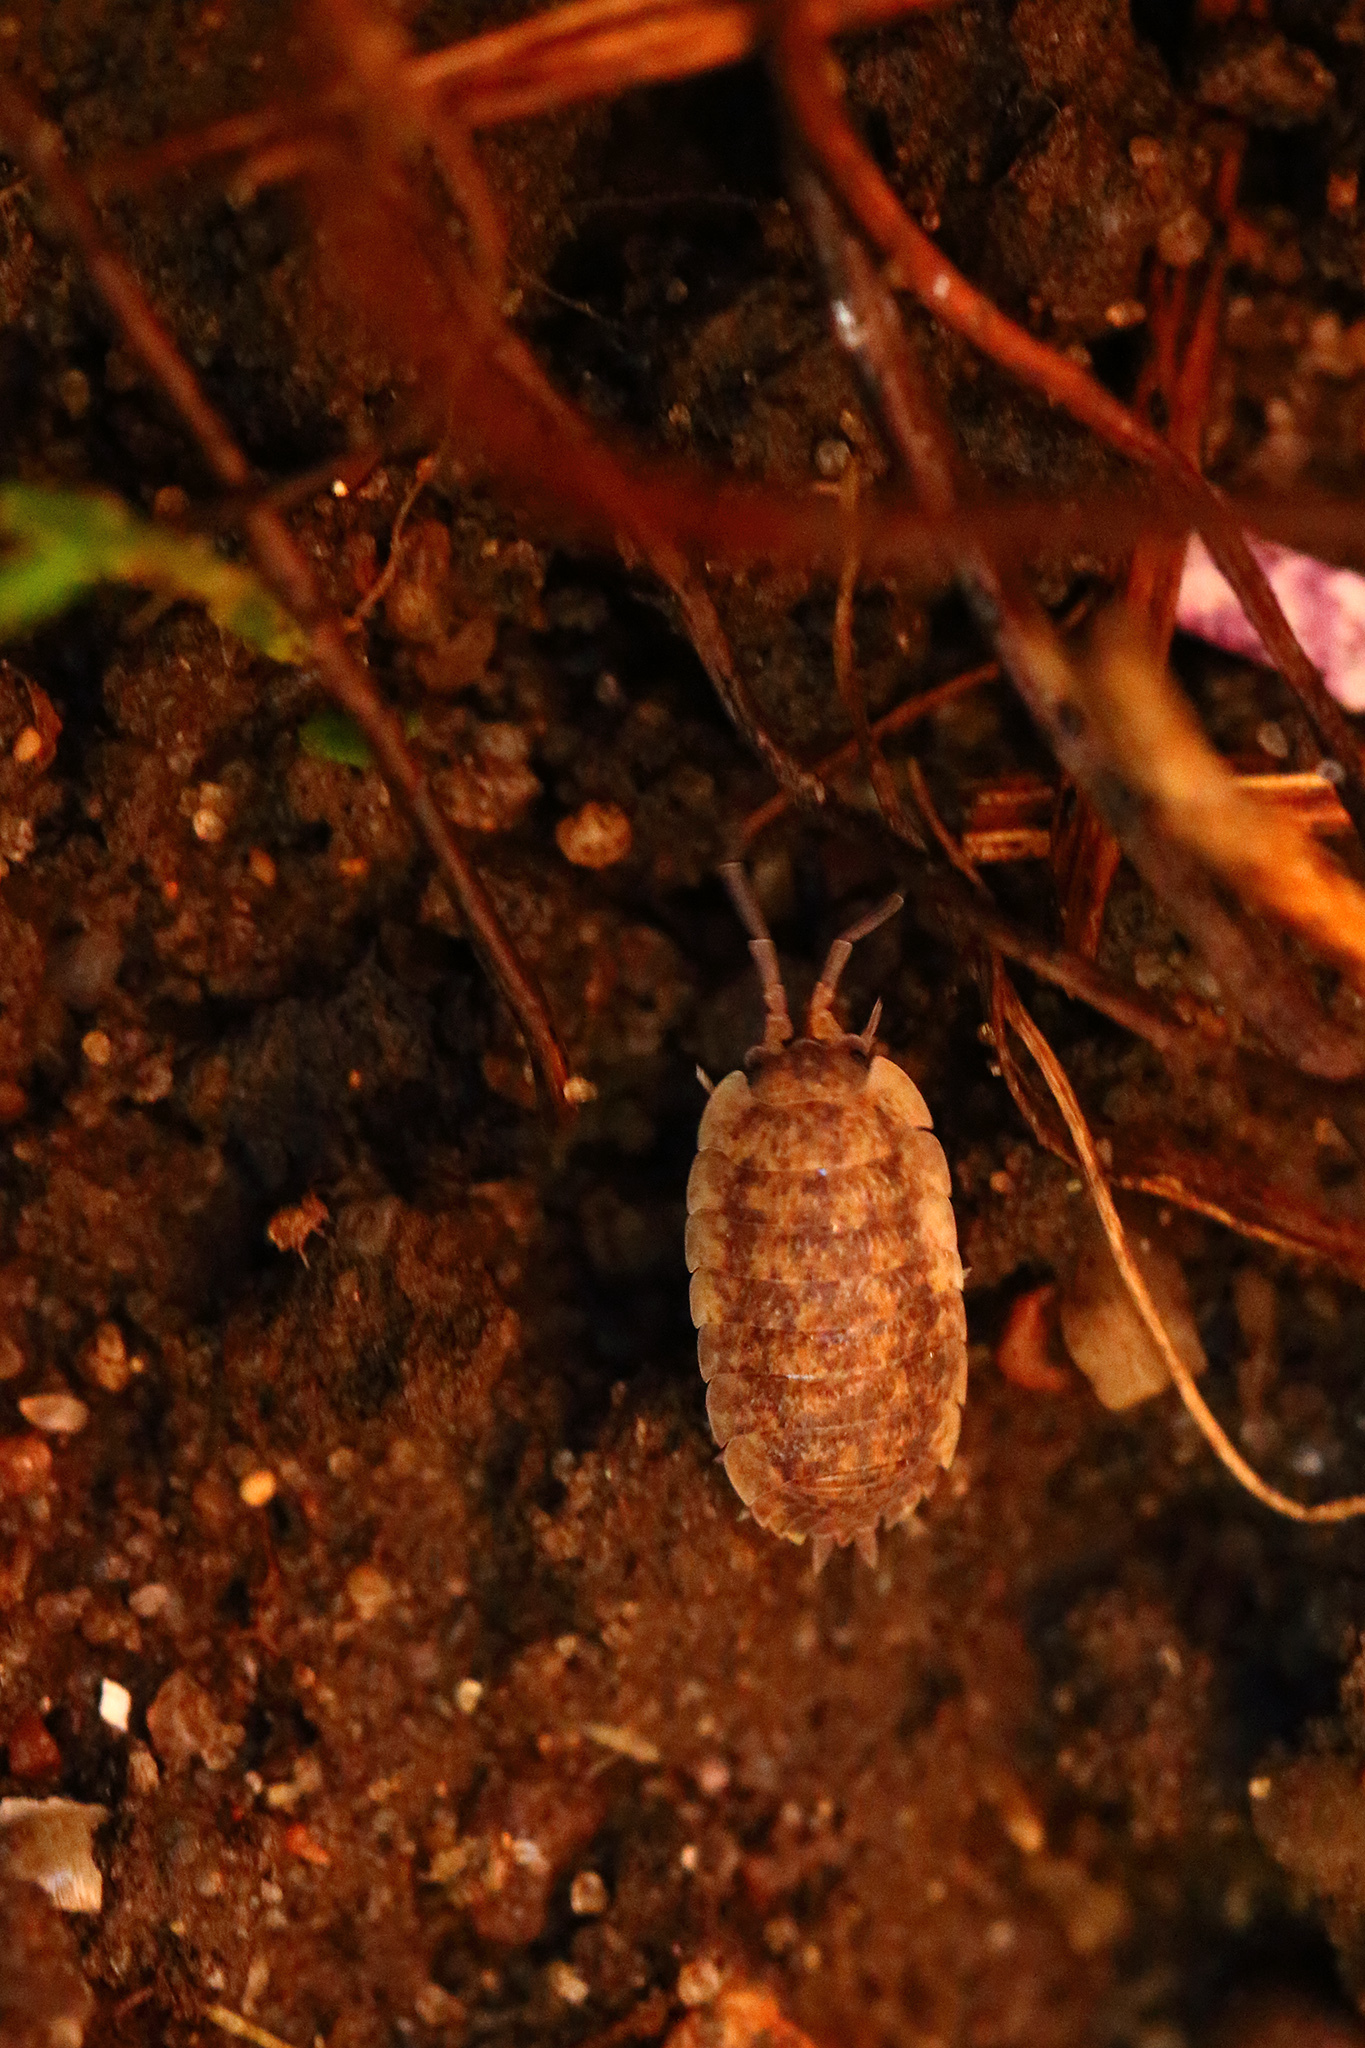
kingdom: Animalia
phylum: Arthropoda
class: Malacostraca
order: Isopoda
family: Porcellionidae
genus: Porcellio
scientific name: Porcellio scaber
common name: Common rough woodlouse
